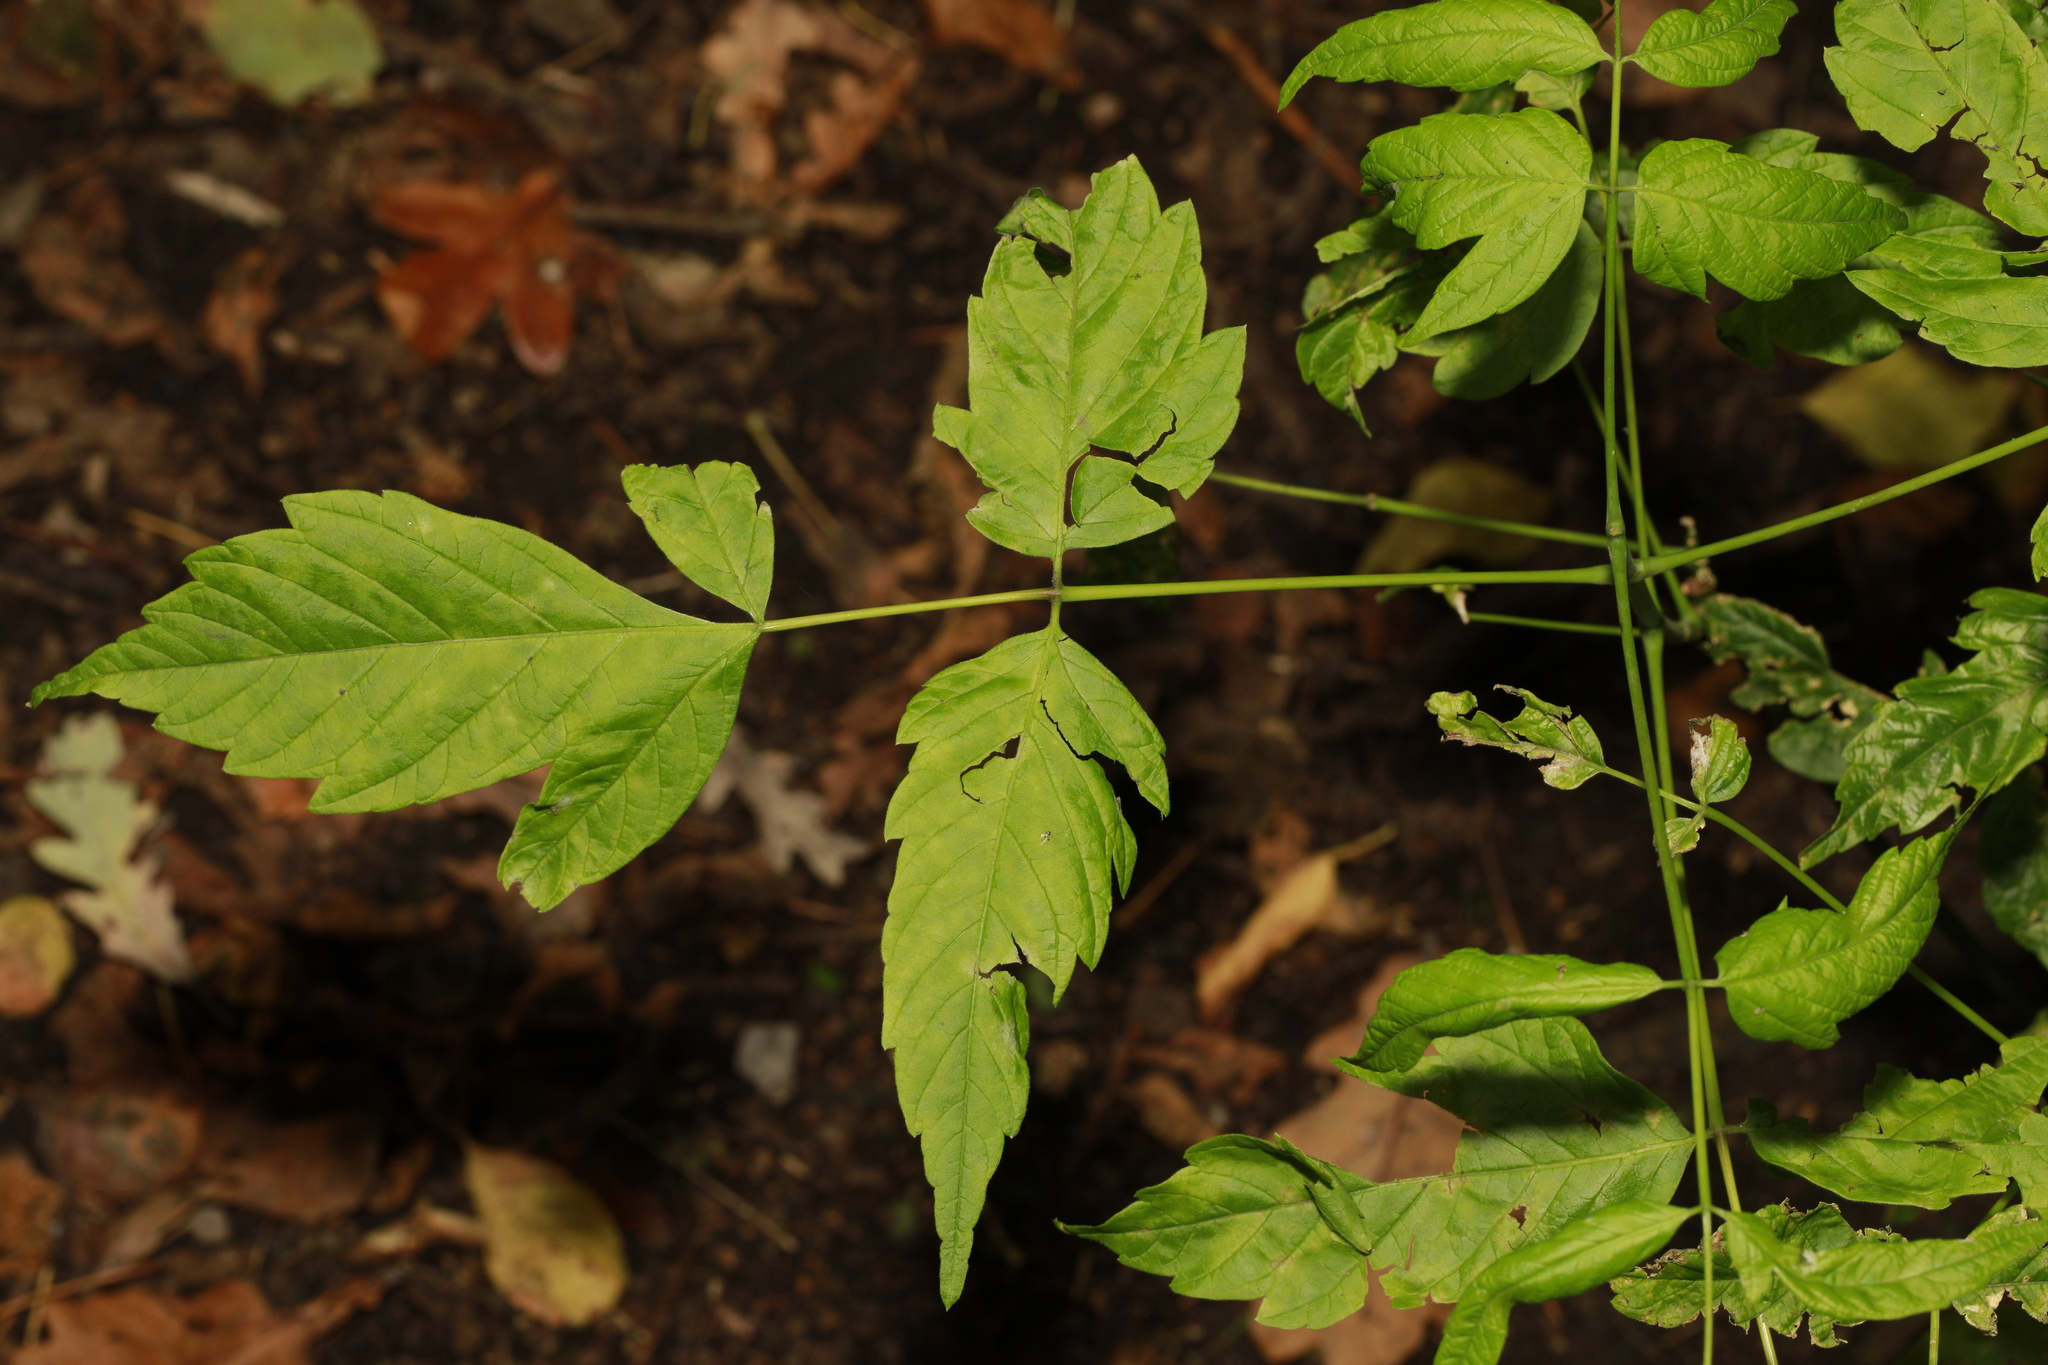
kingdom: Plantae
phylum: Tracheophyta
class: Magnoliopsida
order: Sapindales
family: Sapindaceae
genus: Acer
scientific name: Acer negundo
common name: Ashleaf maple
